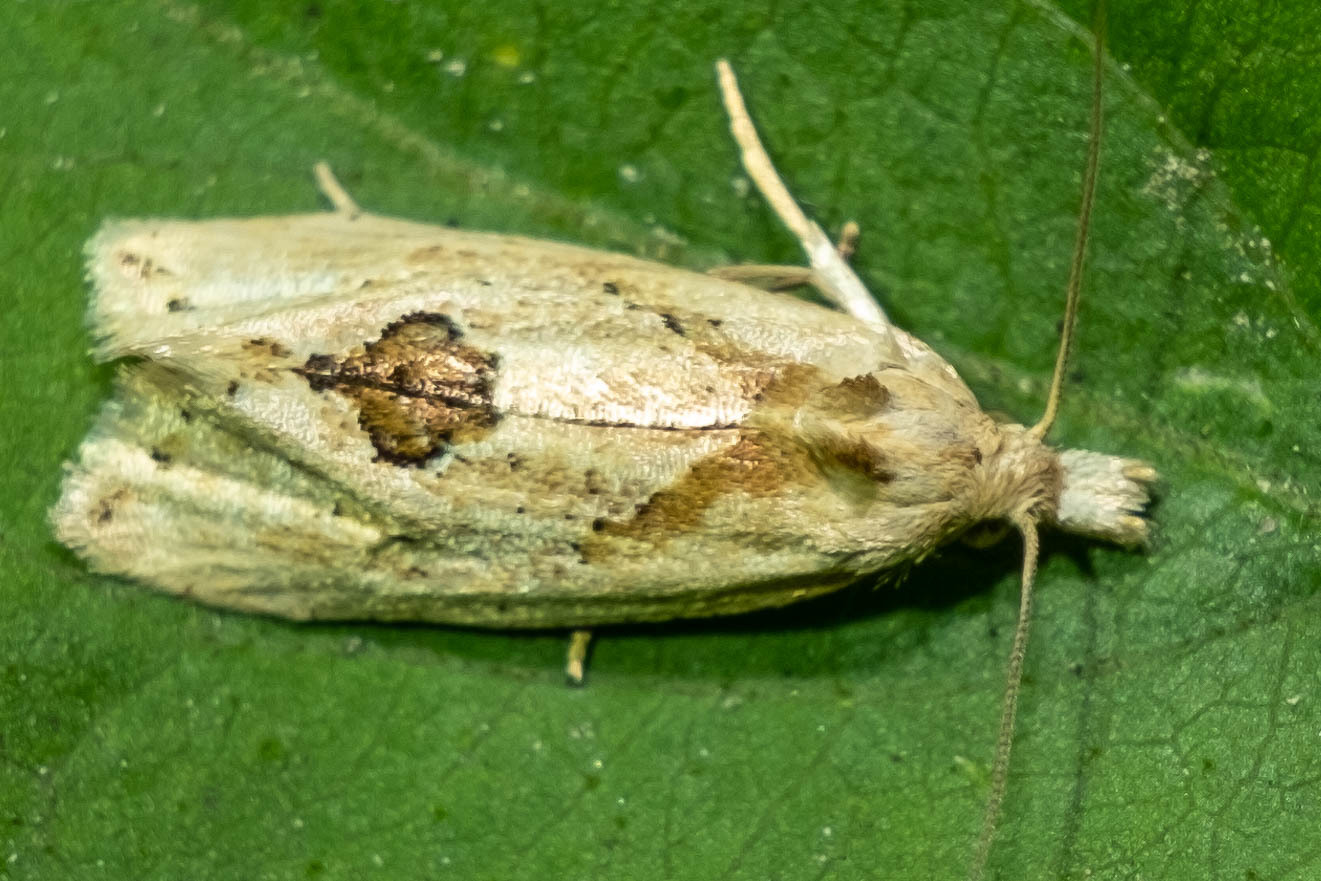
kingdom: Animalia
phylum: Arthropoda
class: Insecta
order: Lepidoptera
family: Tortricidae
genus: Aethes
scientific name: Aethes mymara
